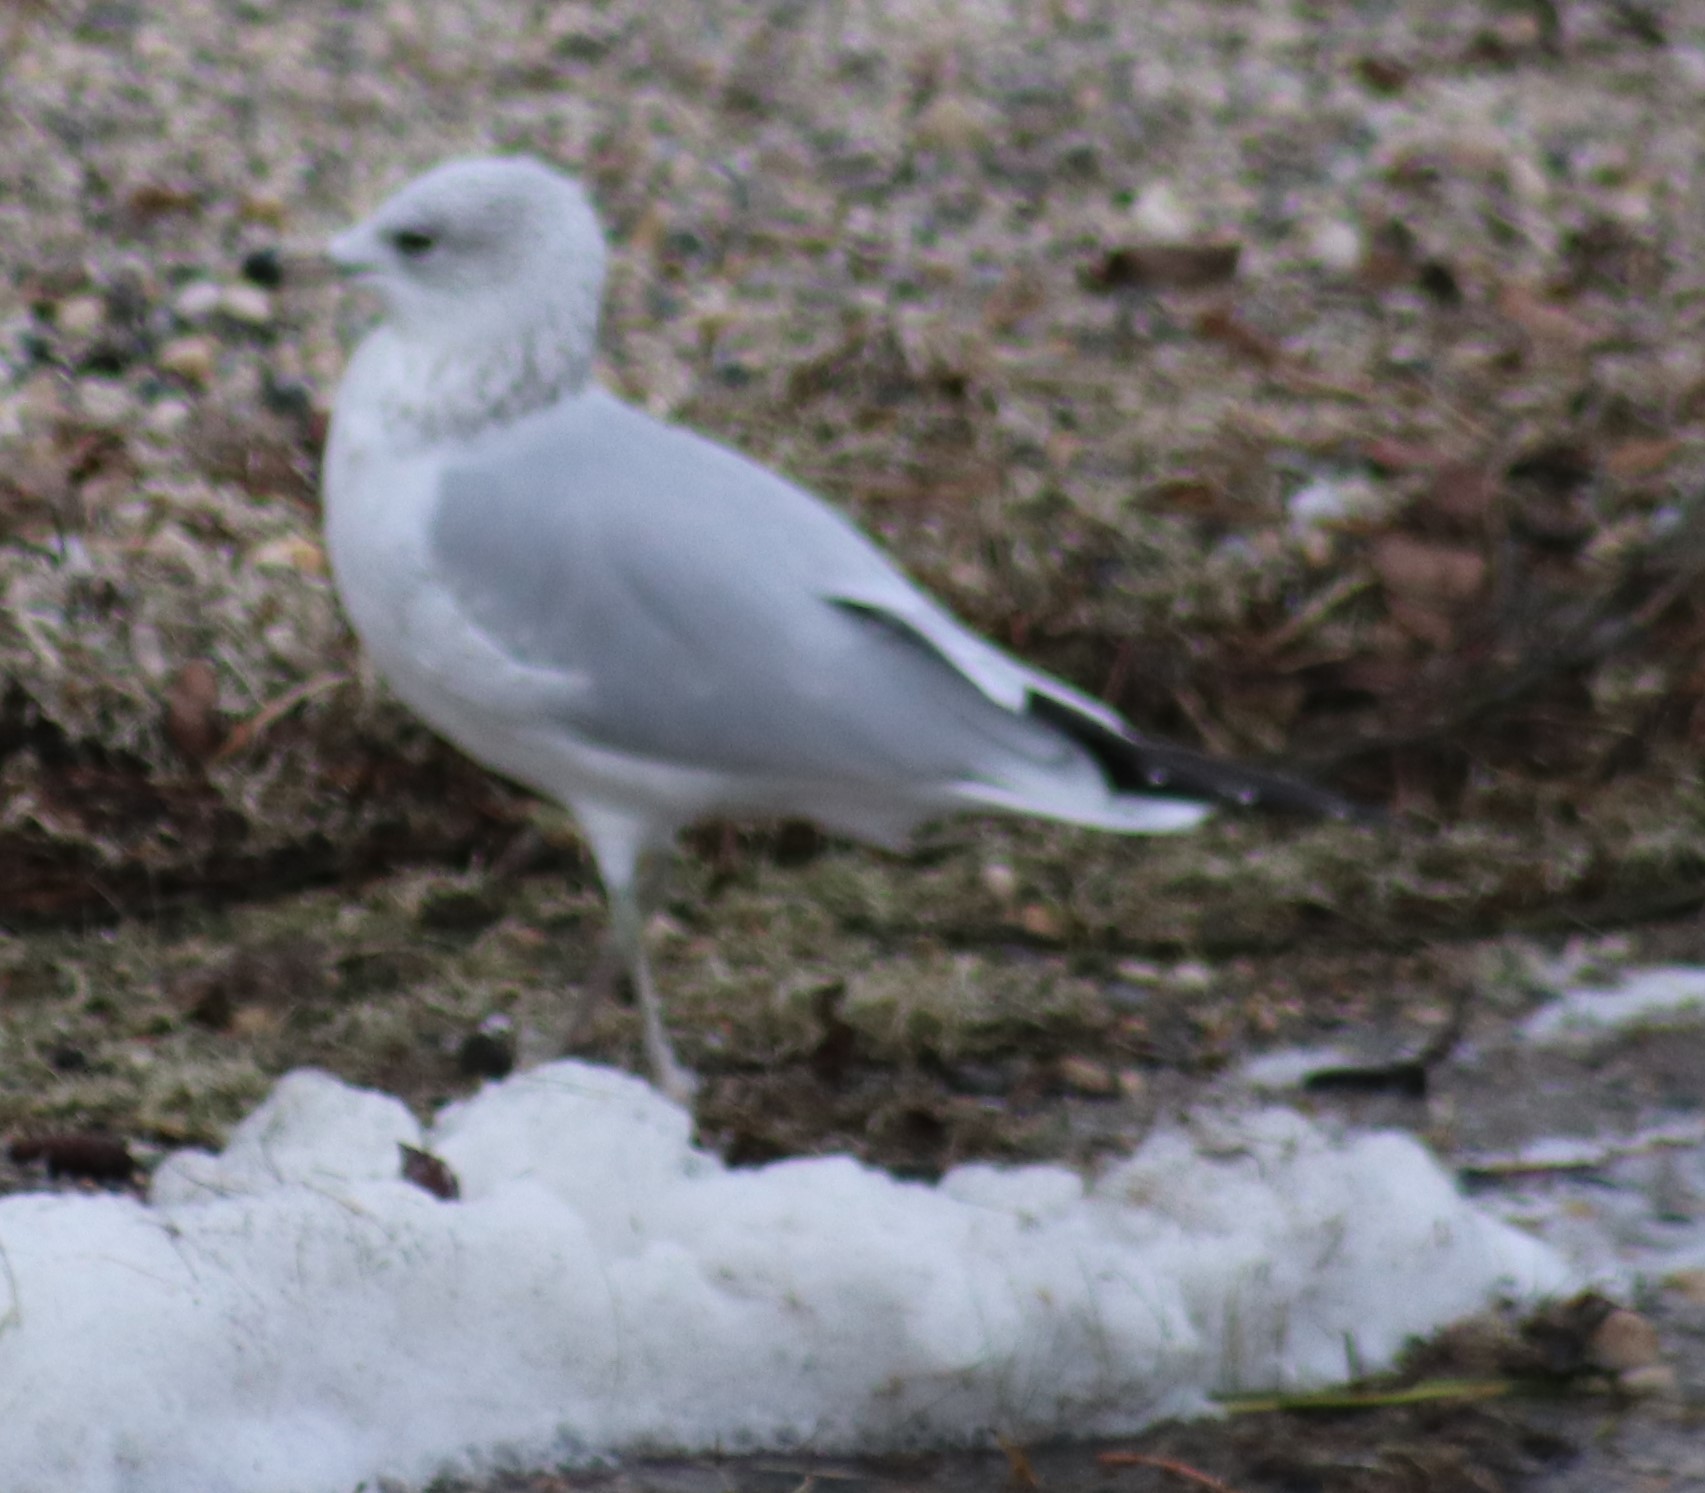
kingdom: Animalia
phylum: Chordata
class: Aves
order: Charadriiformes
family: Laridae
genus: Larus
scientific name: Larus delawarensis
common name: Ring-billed gull
